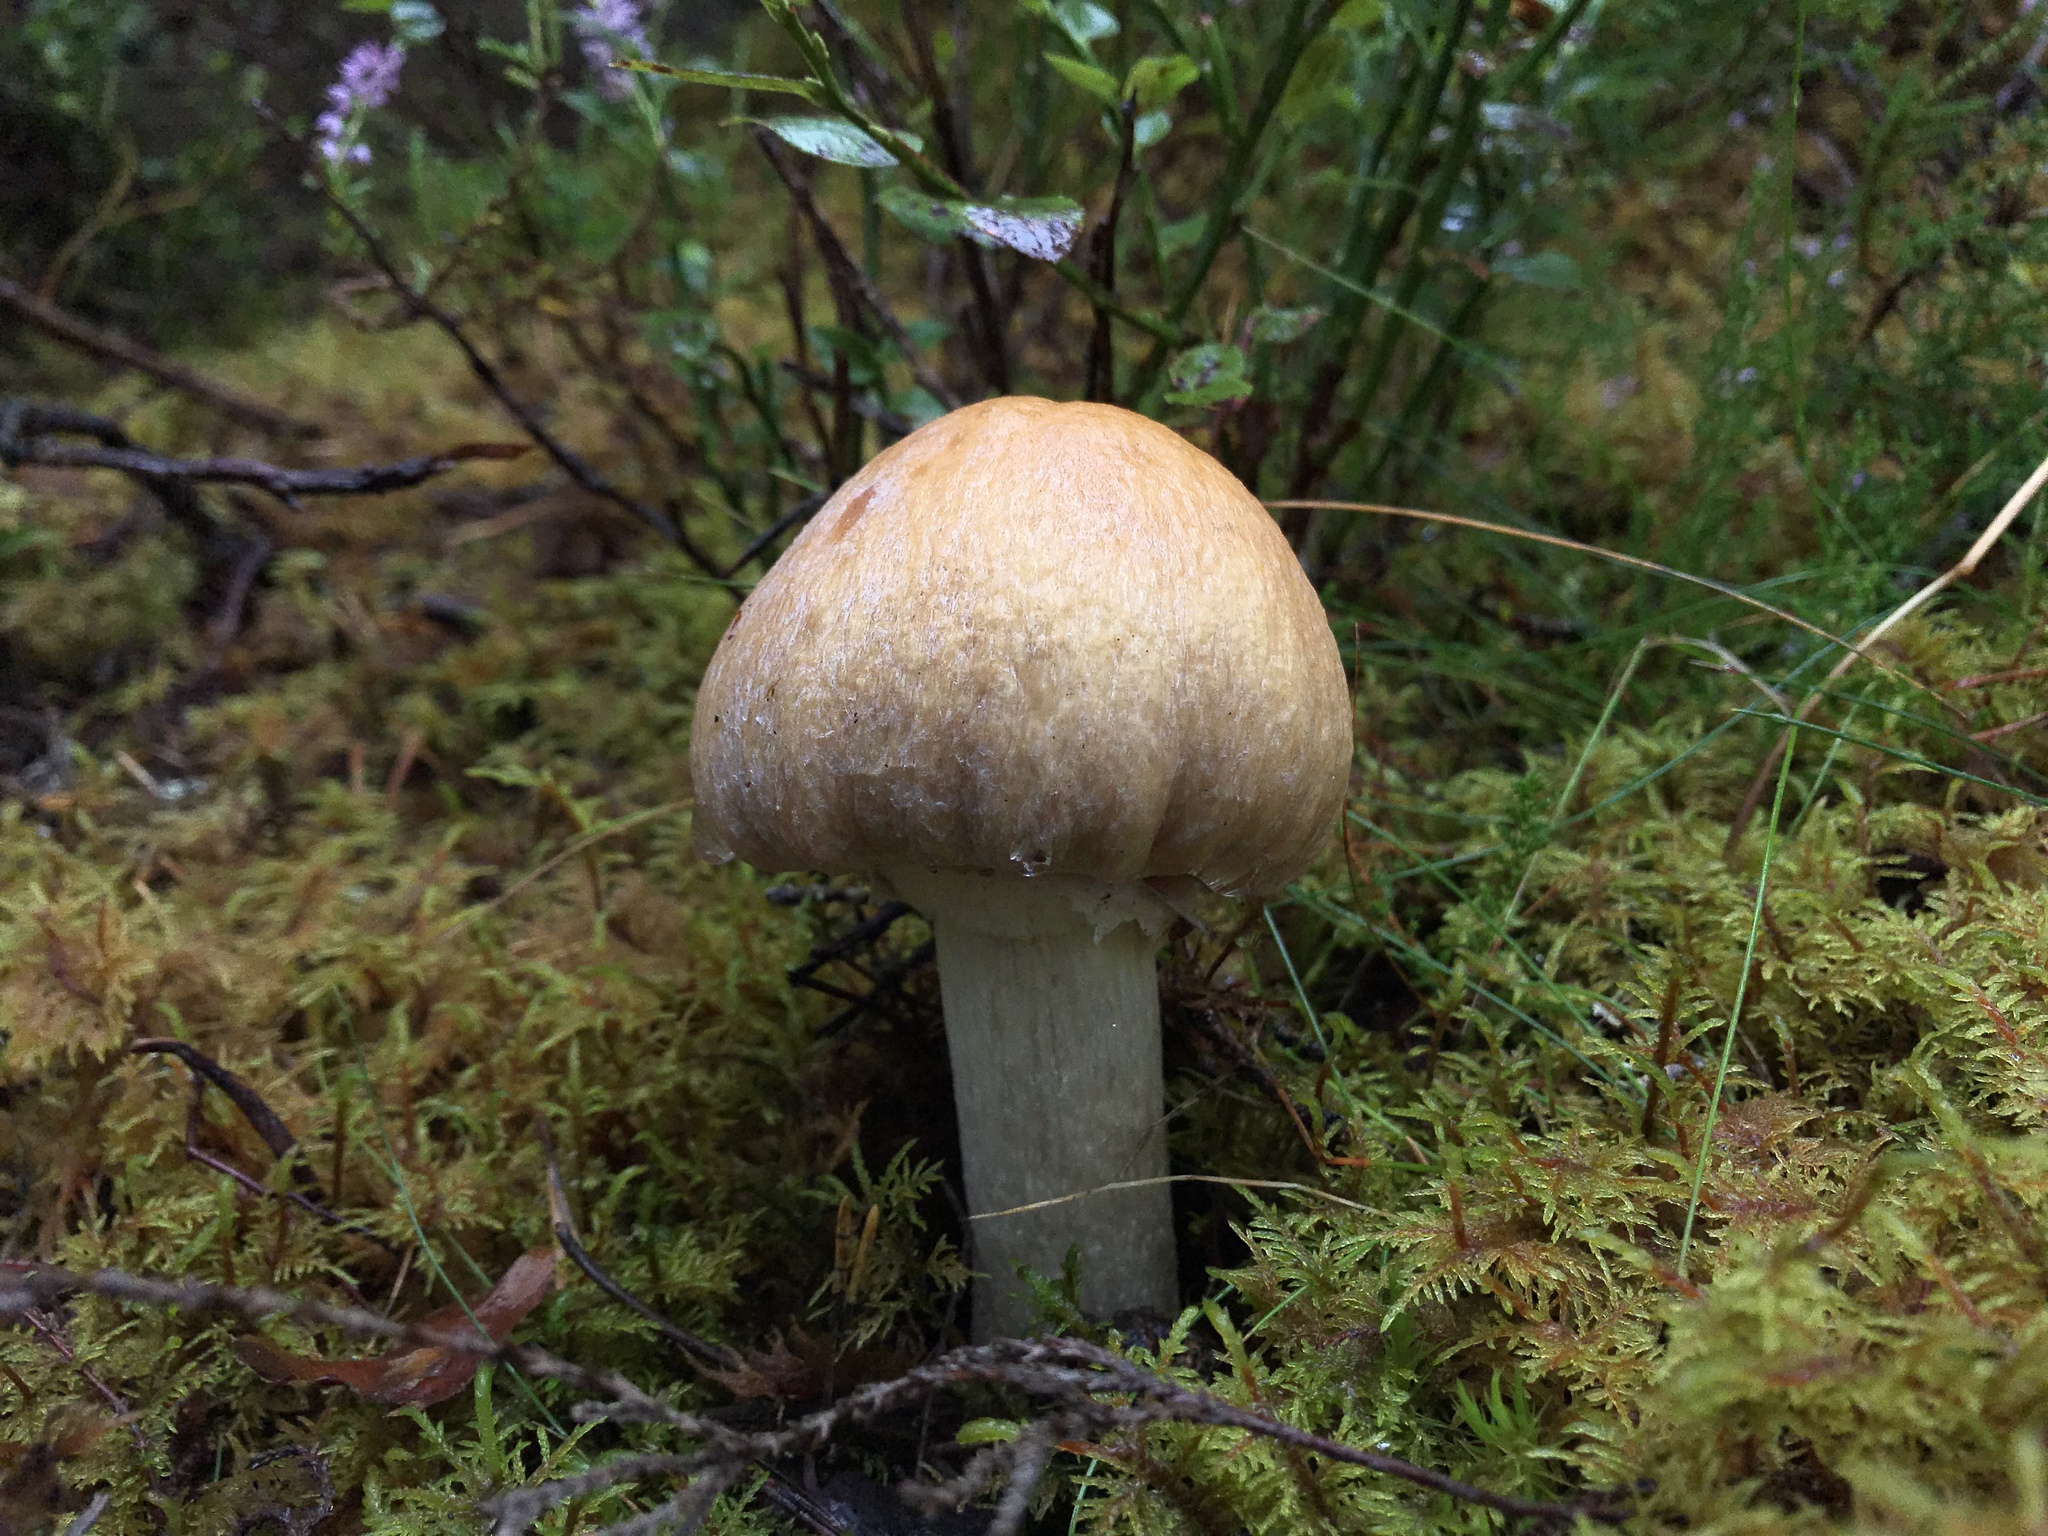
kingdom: Fungi
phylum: Basidiomycota
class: Agaricomycetes
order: Agaricales
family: Cortinariaceae
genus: Cortinarius
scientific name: Cortinarius caperatus
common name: The gypsy
